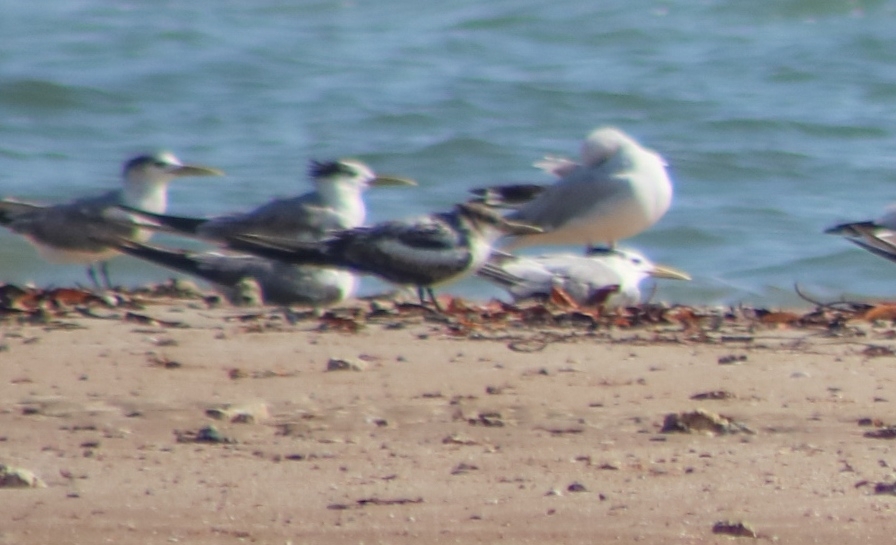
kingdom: Animalia
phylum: Chordata
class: Aves
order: Charadriiformes
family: Laridae
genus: Thalasseus
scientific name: Thalasseus bergii
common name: Greater crested tern
